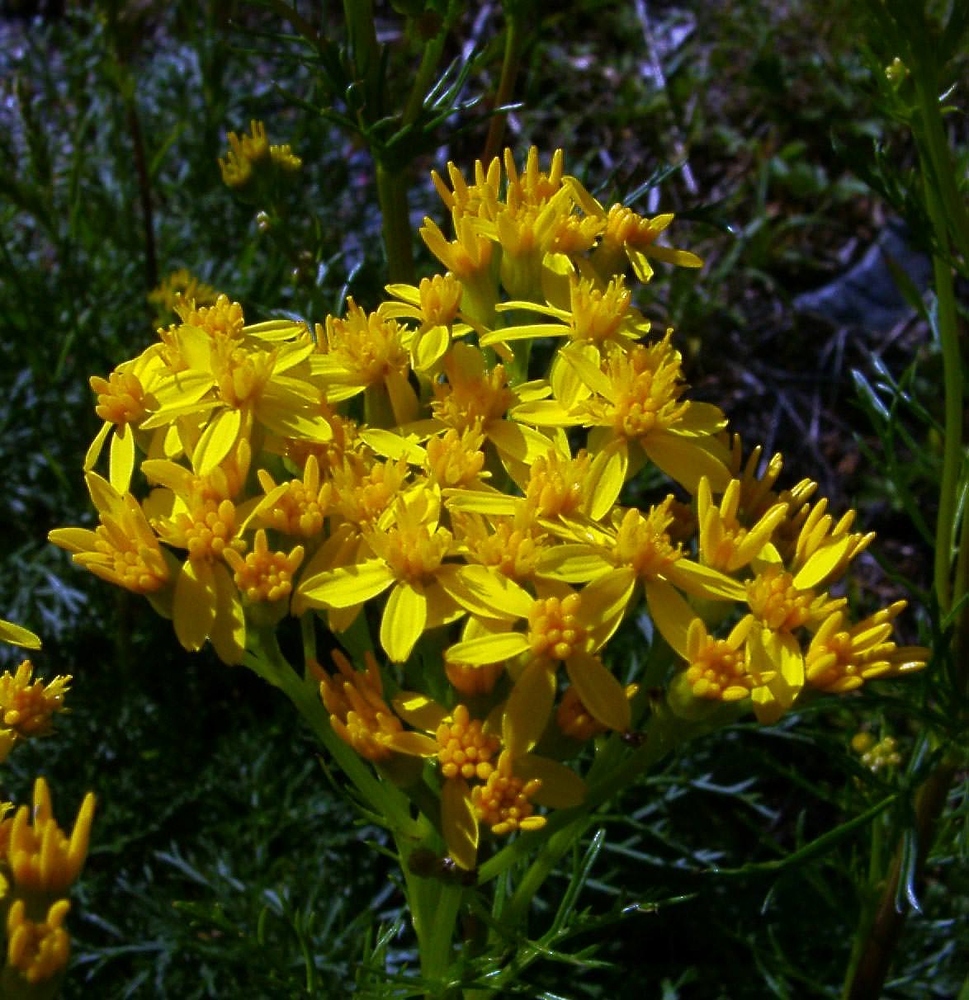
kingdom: Plantae
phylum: Tracheophyta
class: Magnoliopsida
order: Asterales
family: Asteraceae
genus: Jacobaea
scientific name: Jacobaea adonidifolia
